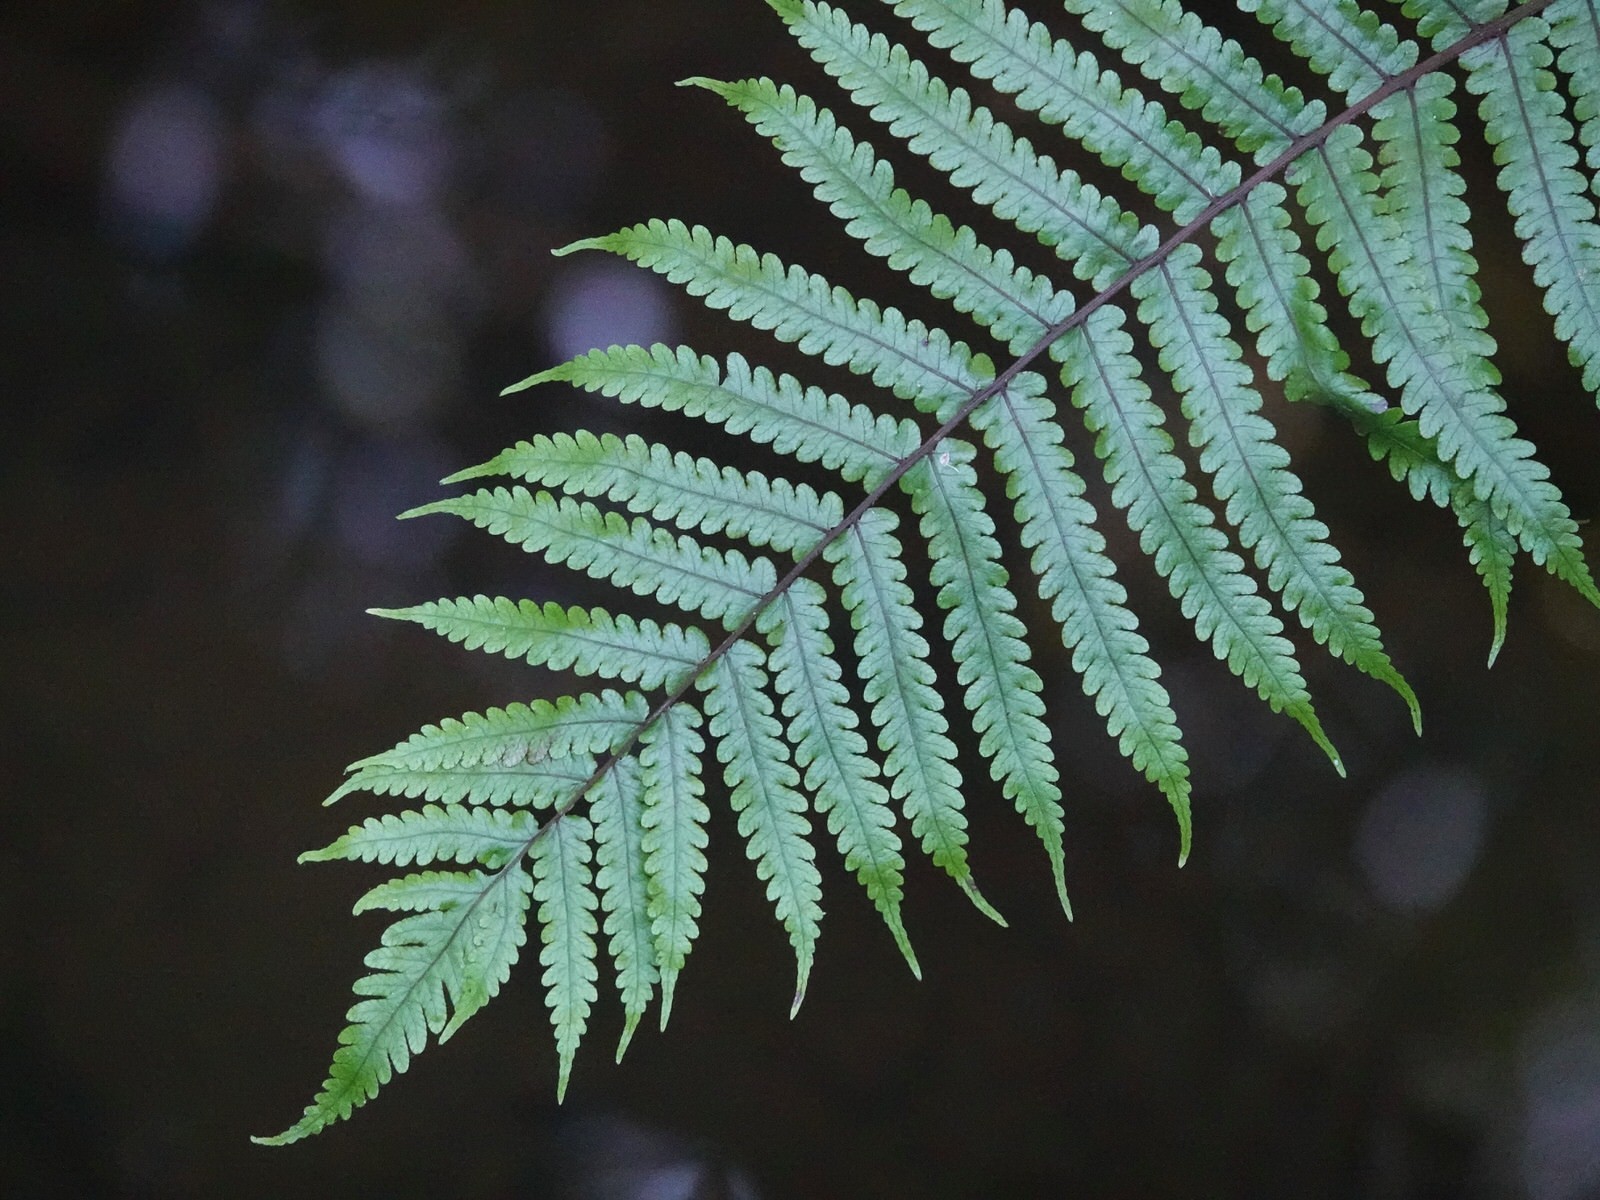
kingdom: Plantae
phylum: Tracheophyta
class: Polypodiopsida
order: Polypodiales
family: Thelypteridaceae
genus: Pakau
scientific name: Pakau pennigera
